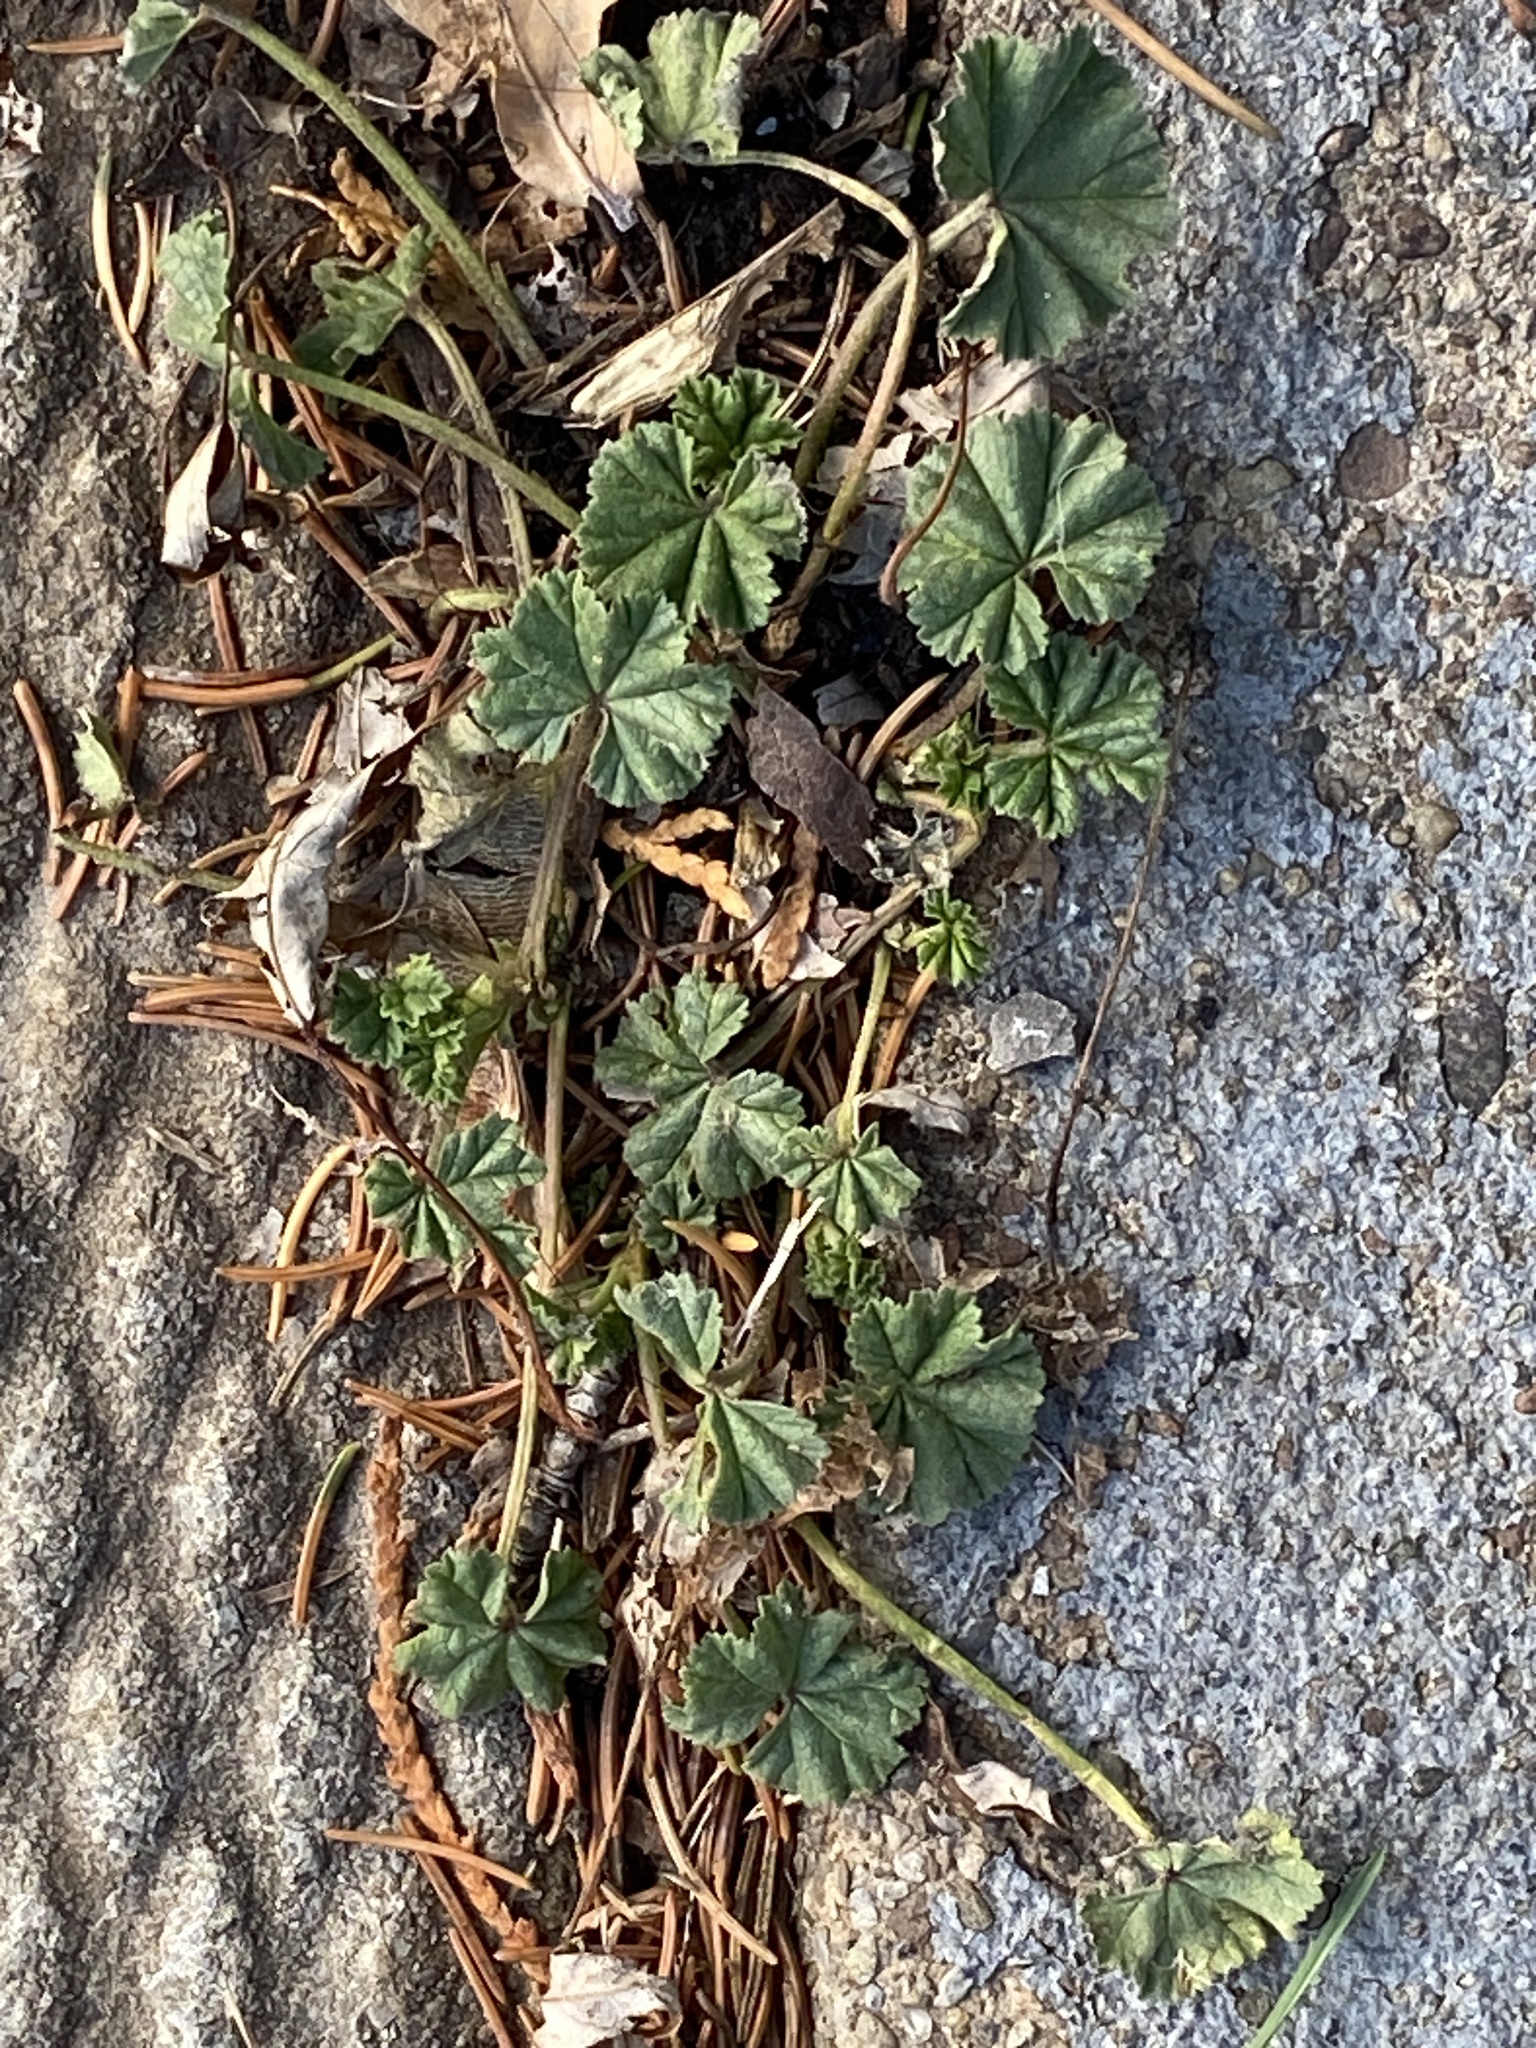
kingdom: Plantae
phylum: Tracheophyta
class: Magnoliopsida
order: Malvales
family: Malvaceae
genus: Malva
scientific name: Malva neglecta
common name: Common mallow
